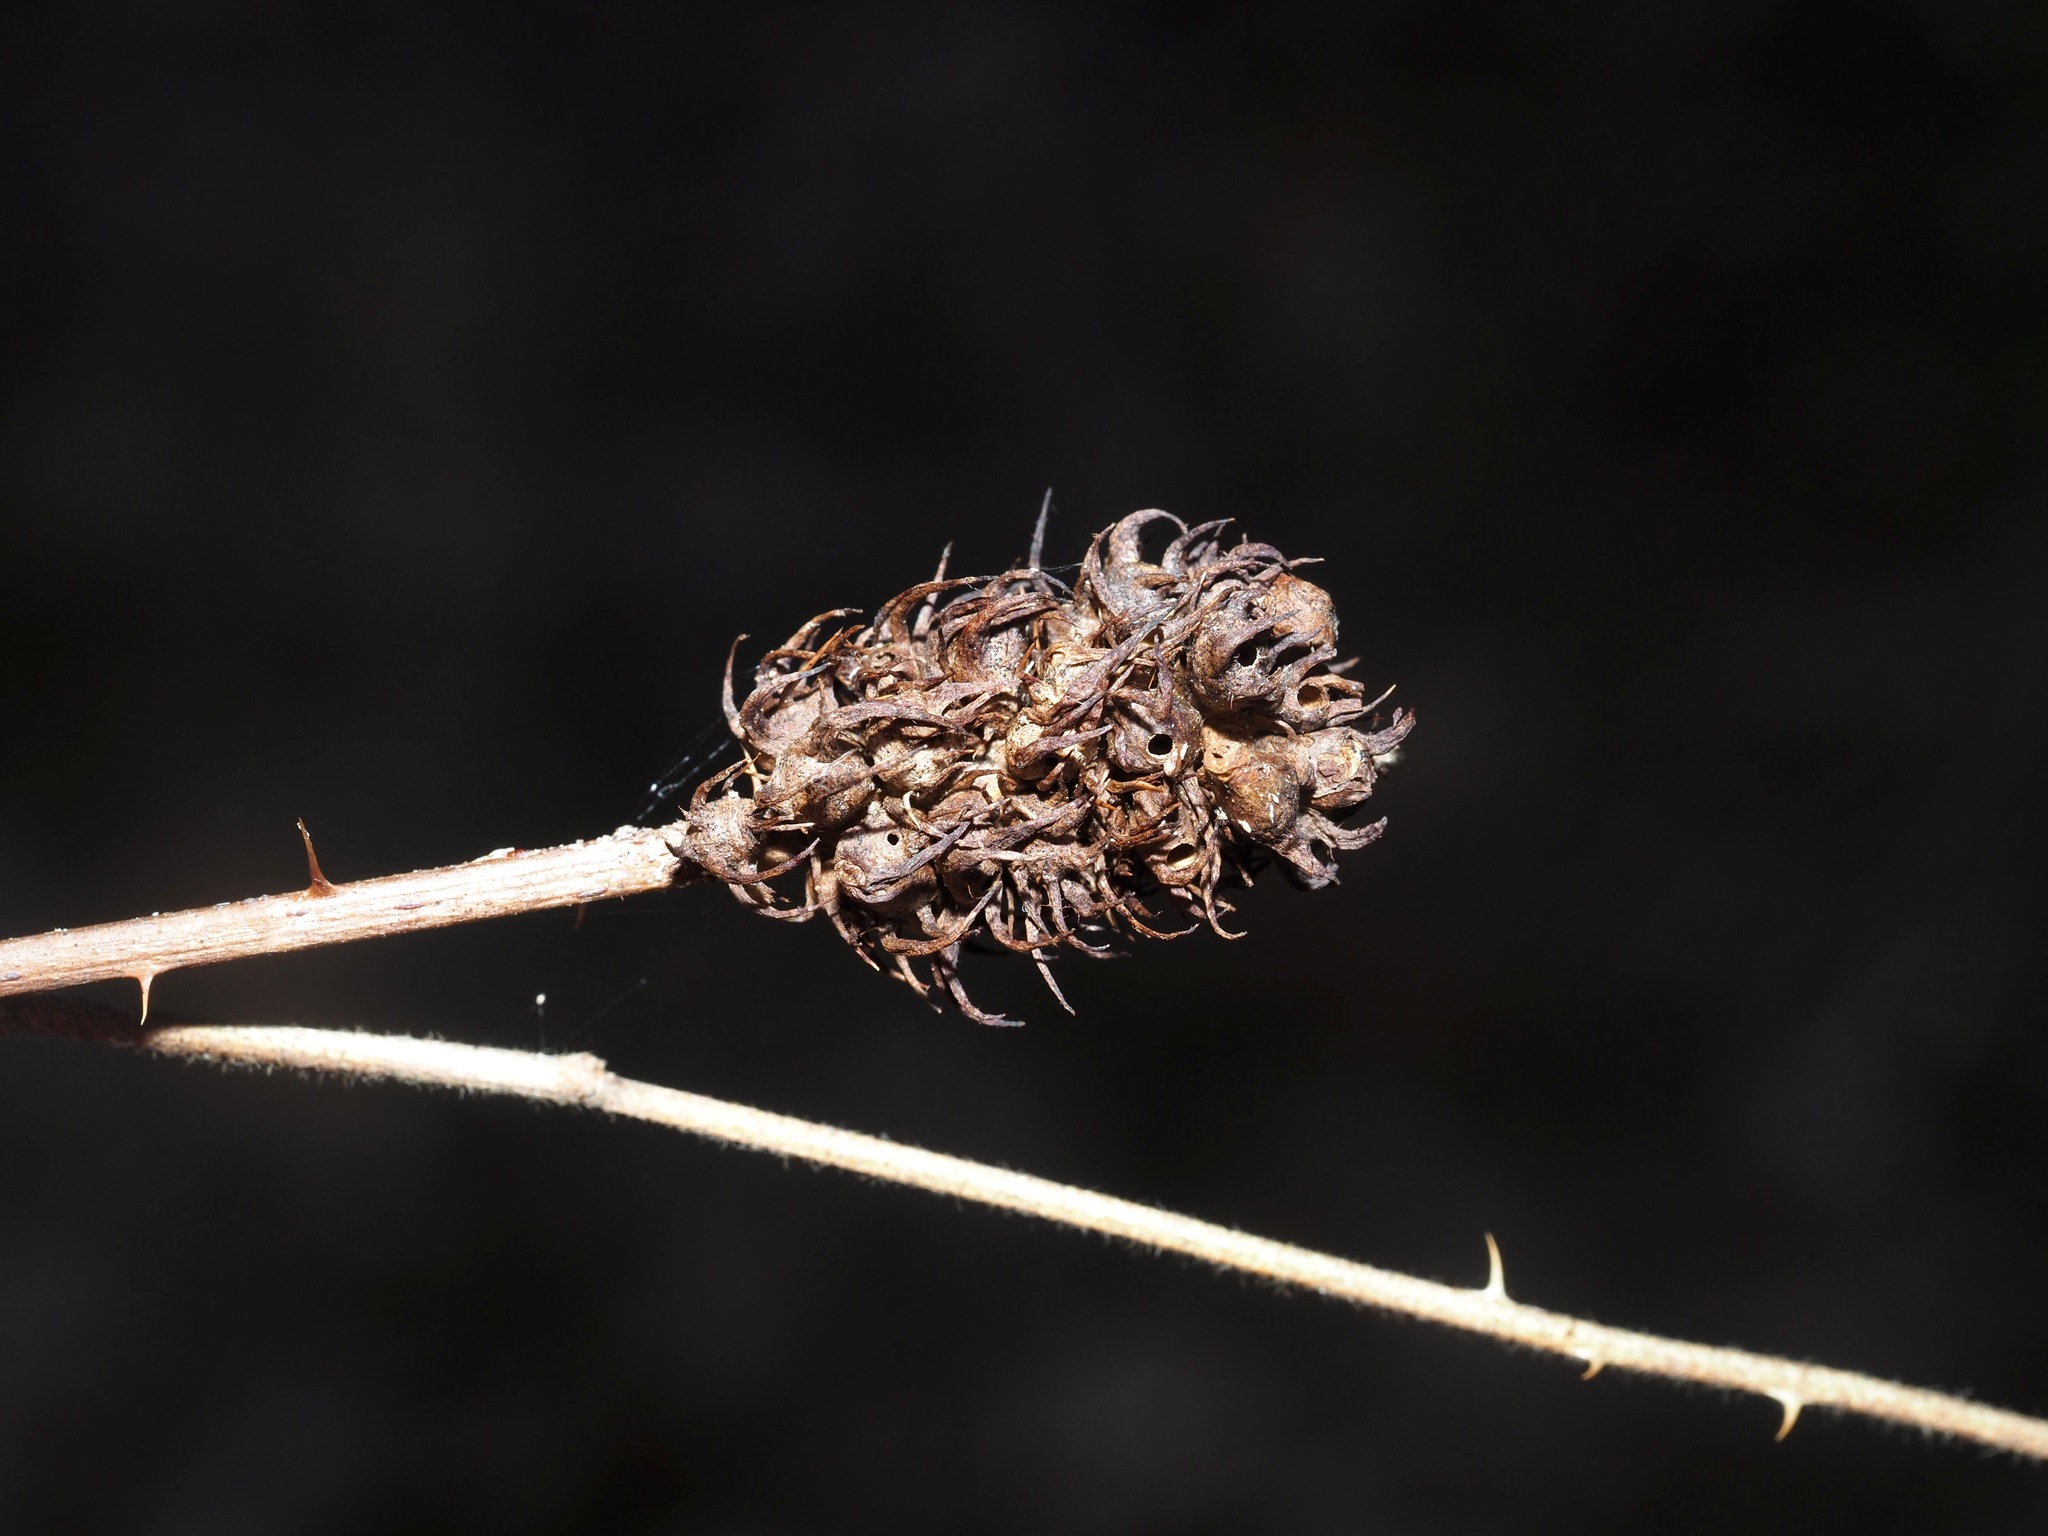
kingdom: Animalia
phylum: Arthropoda
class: Insecta
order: Hymenoptera
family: Cynipidae
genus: Diastrophus
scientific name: Diastrophus
